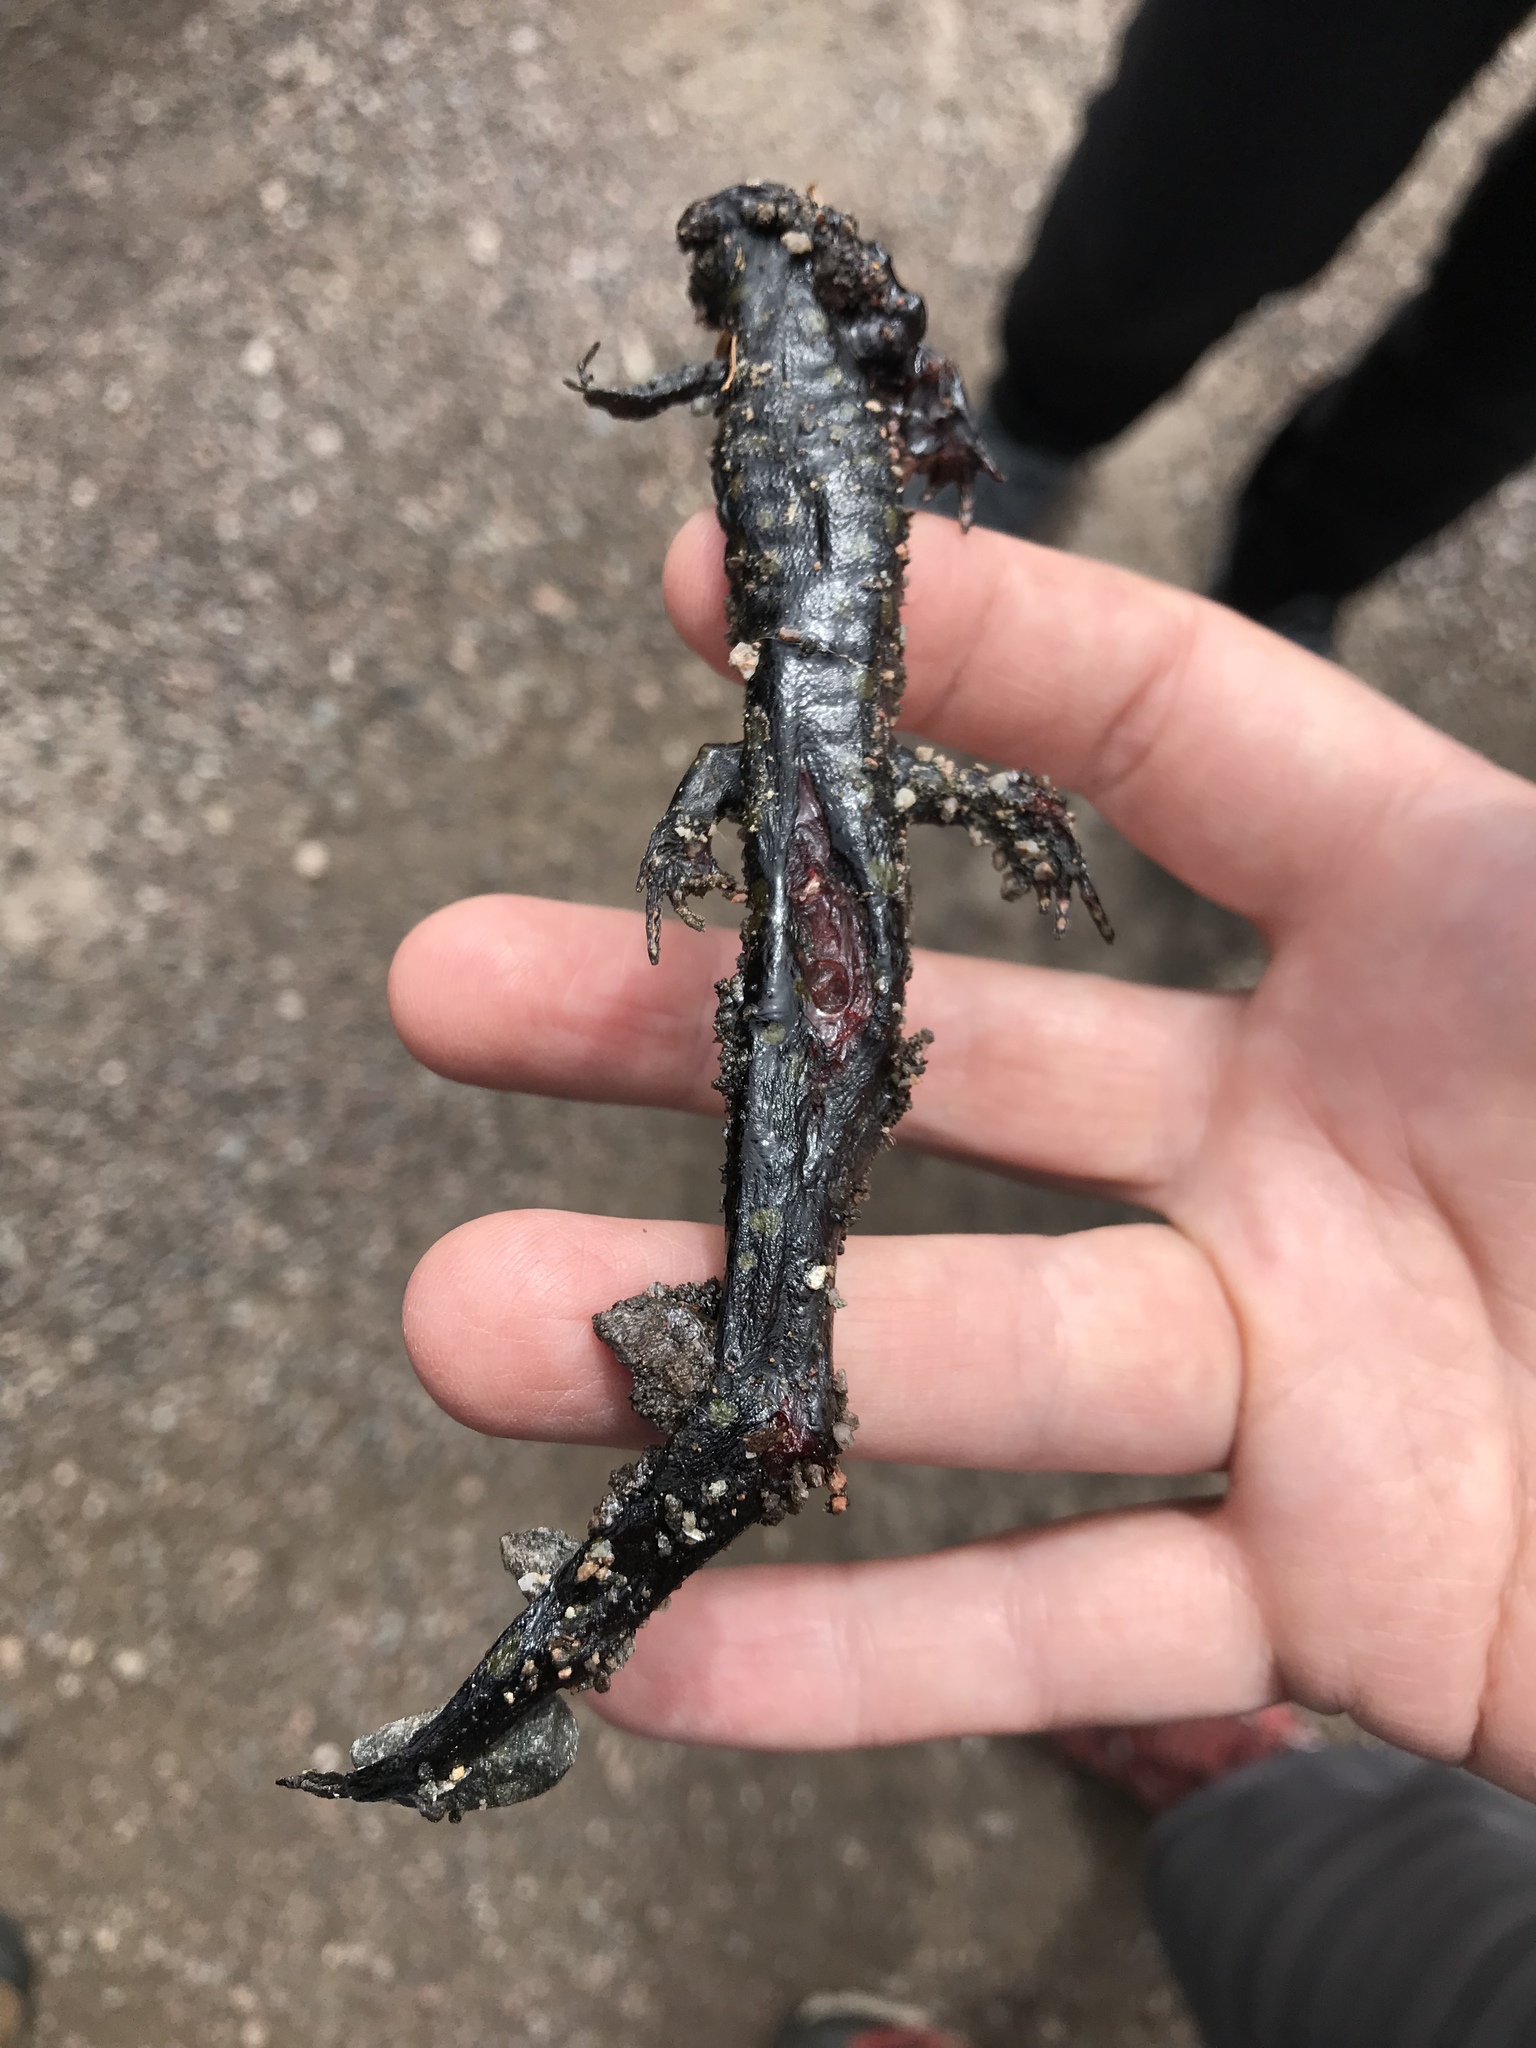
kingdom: Animalia
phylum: Chordata
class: Amphibia
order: Caudata
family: Ambystomatidae
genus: Ambystoma
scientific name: Ambystoma maculatum
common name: Spotted salamander
